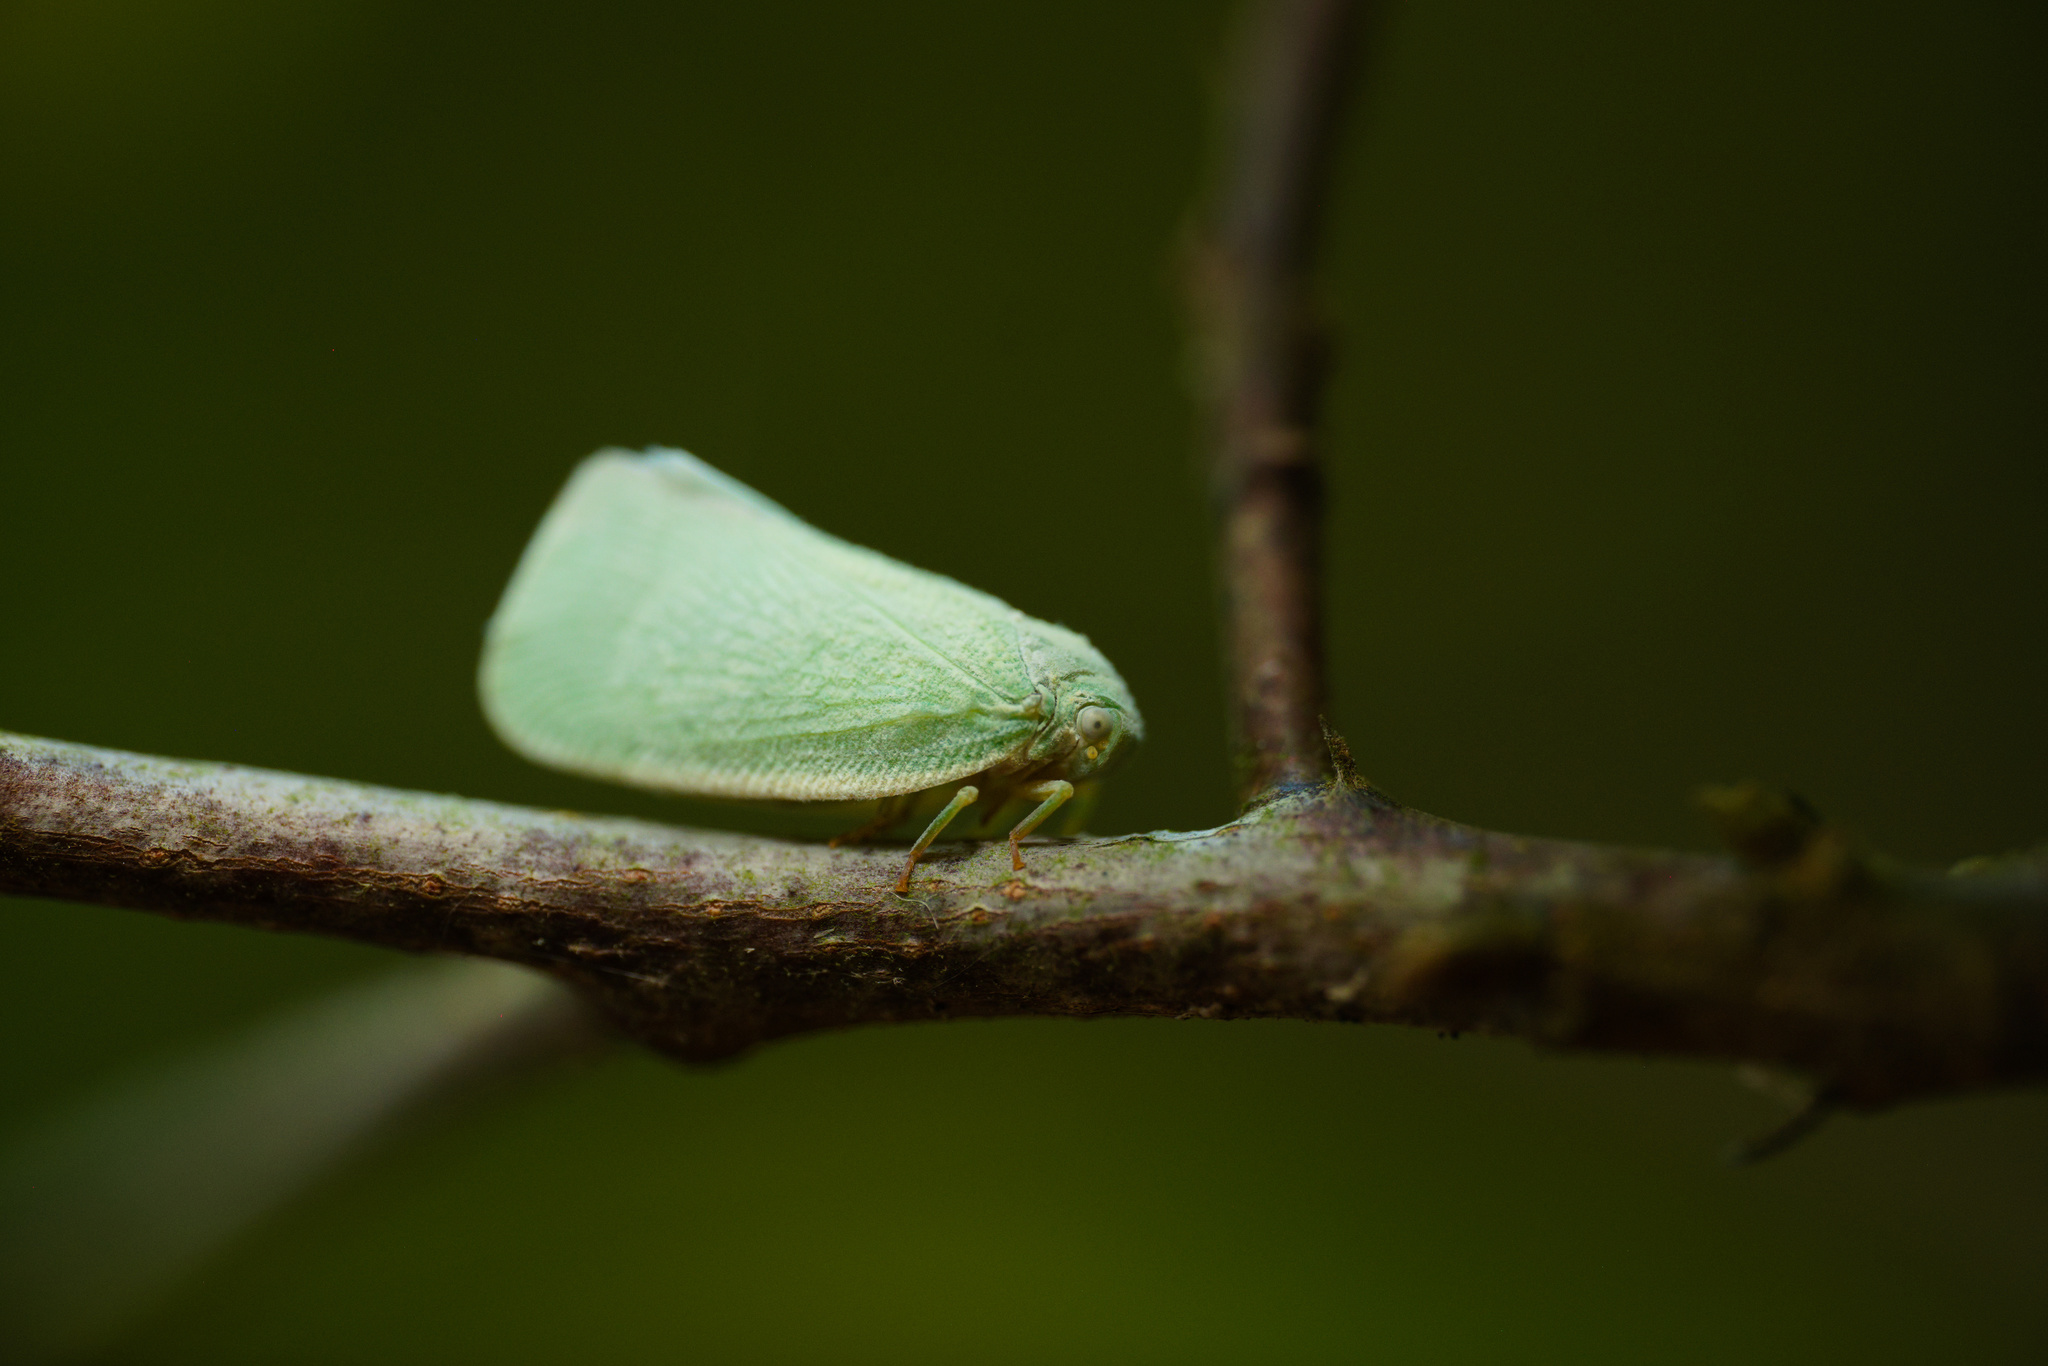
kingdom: Animalia
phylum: Arthropoda
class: Insecta
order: Hemiptera
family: Flatidae
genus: Flatormenis
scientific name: Flatormenis proxima
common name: Northern flatid planthopper
